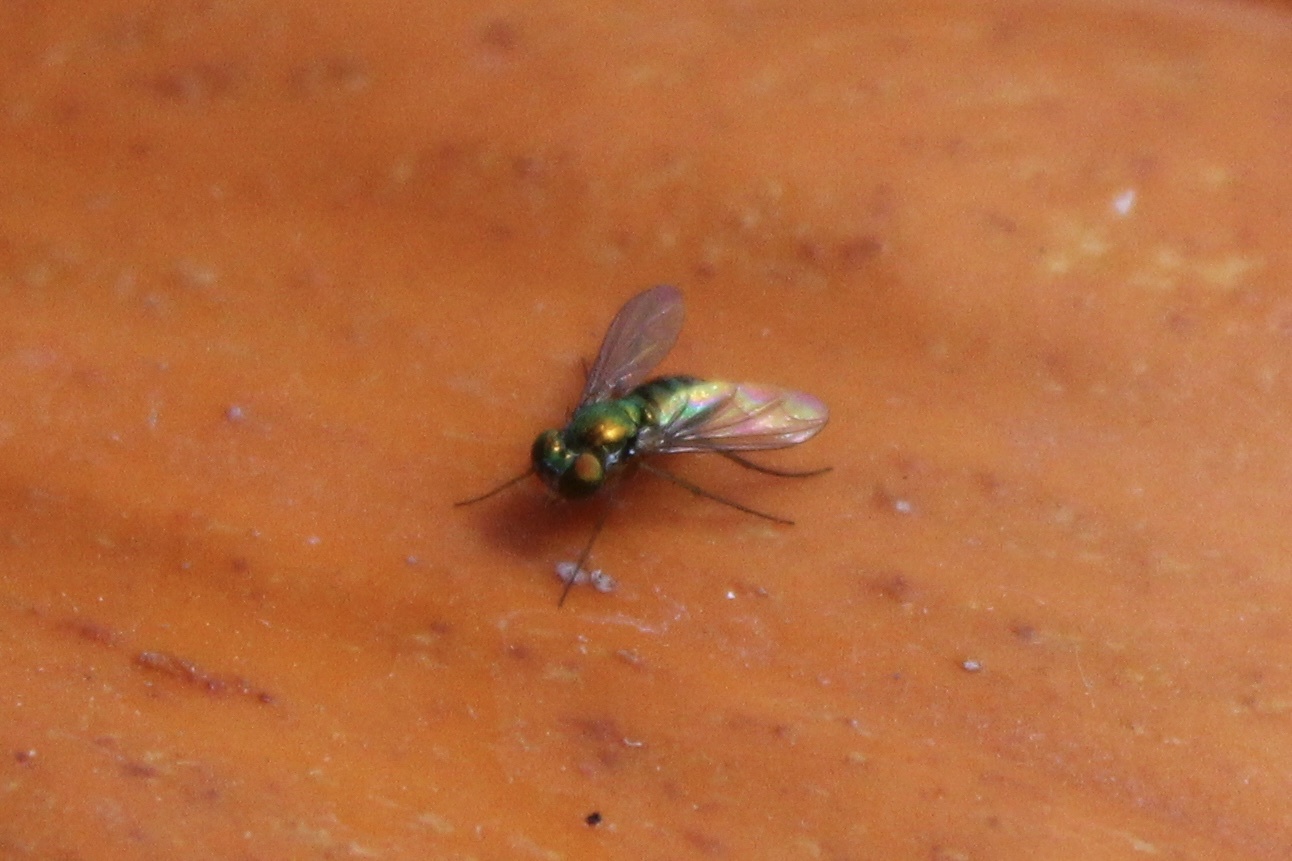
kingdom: Animalia
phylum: Arthropoda
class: Insecta
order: Diptera
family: Dolichopodidae
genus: Condylostylus
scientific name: Condylostylus
